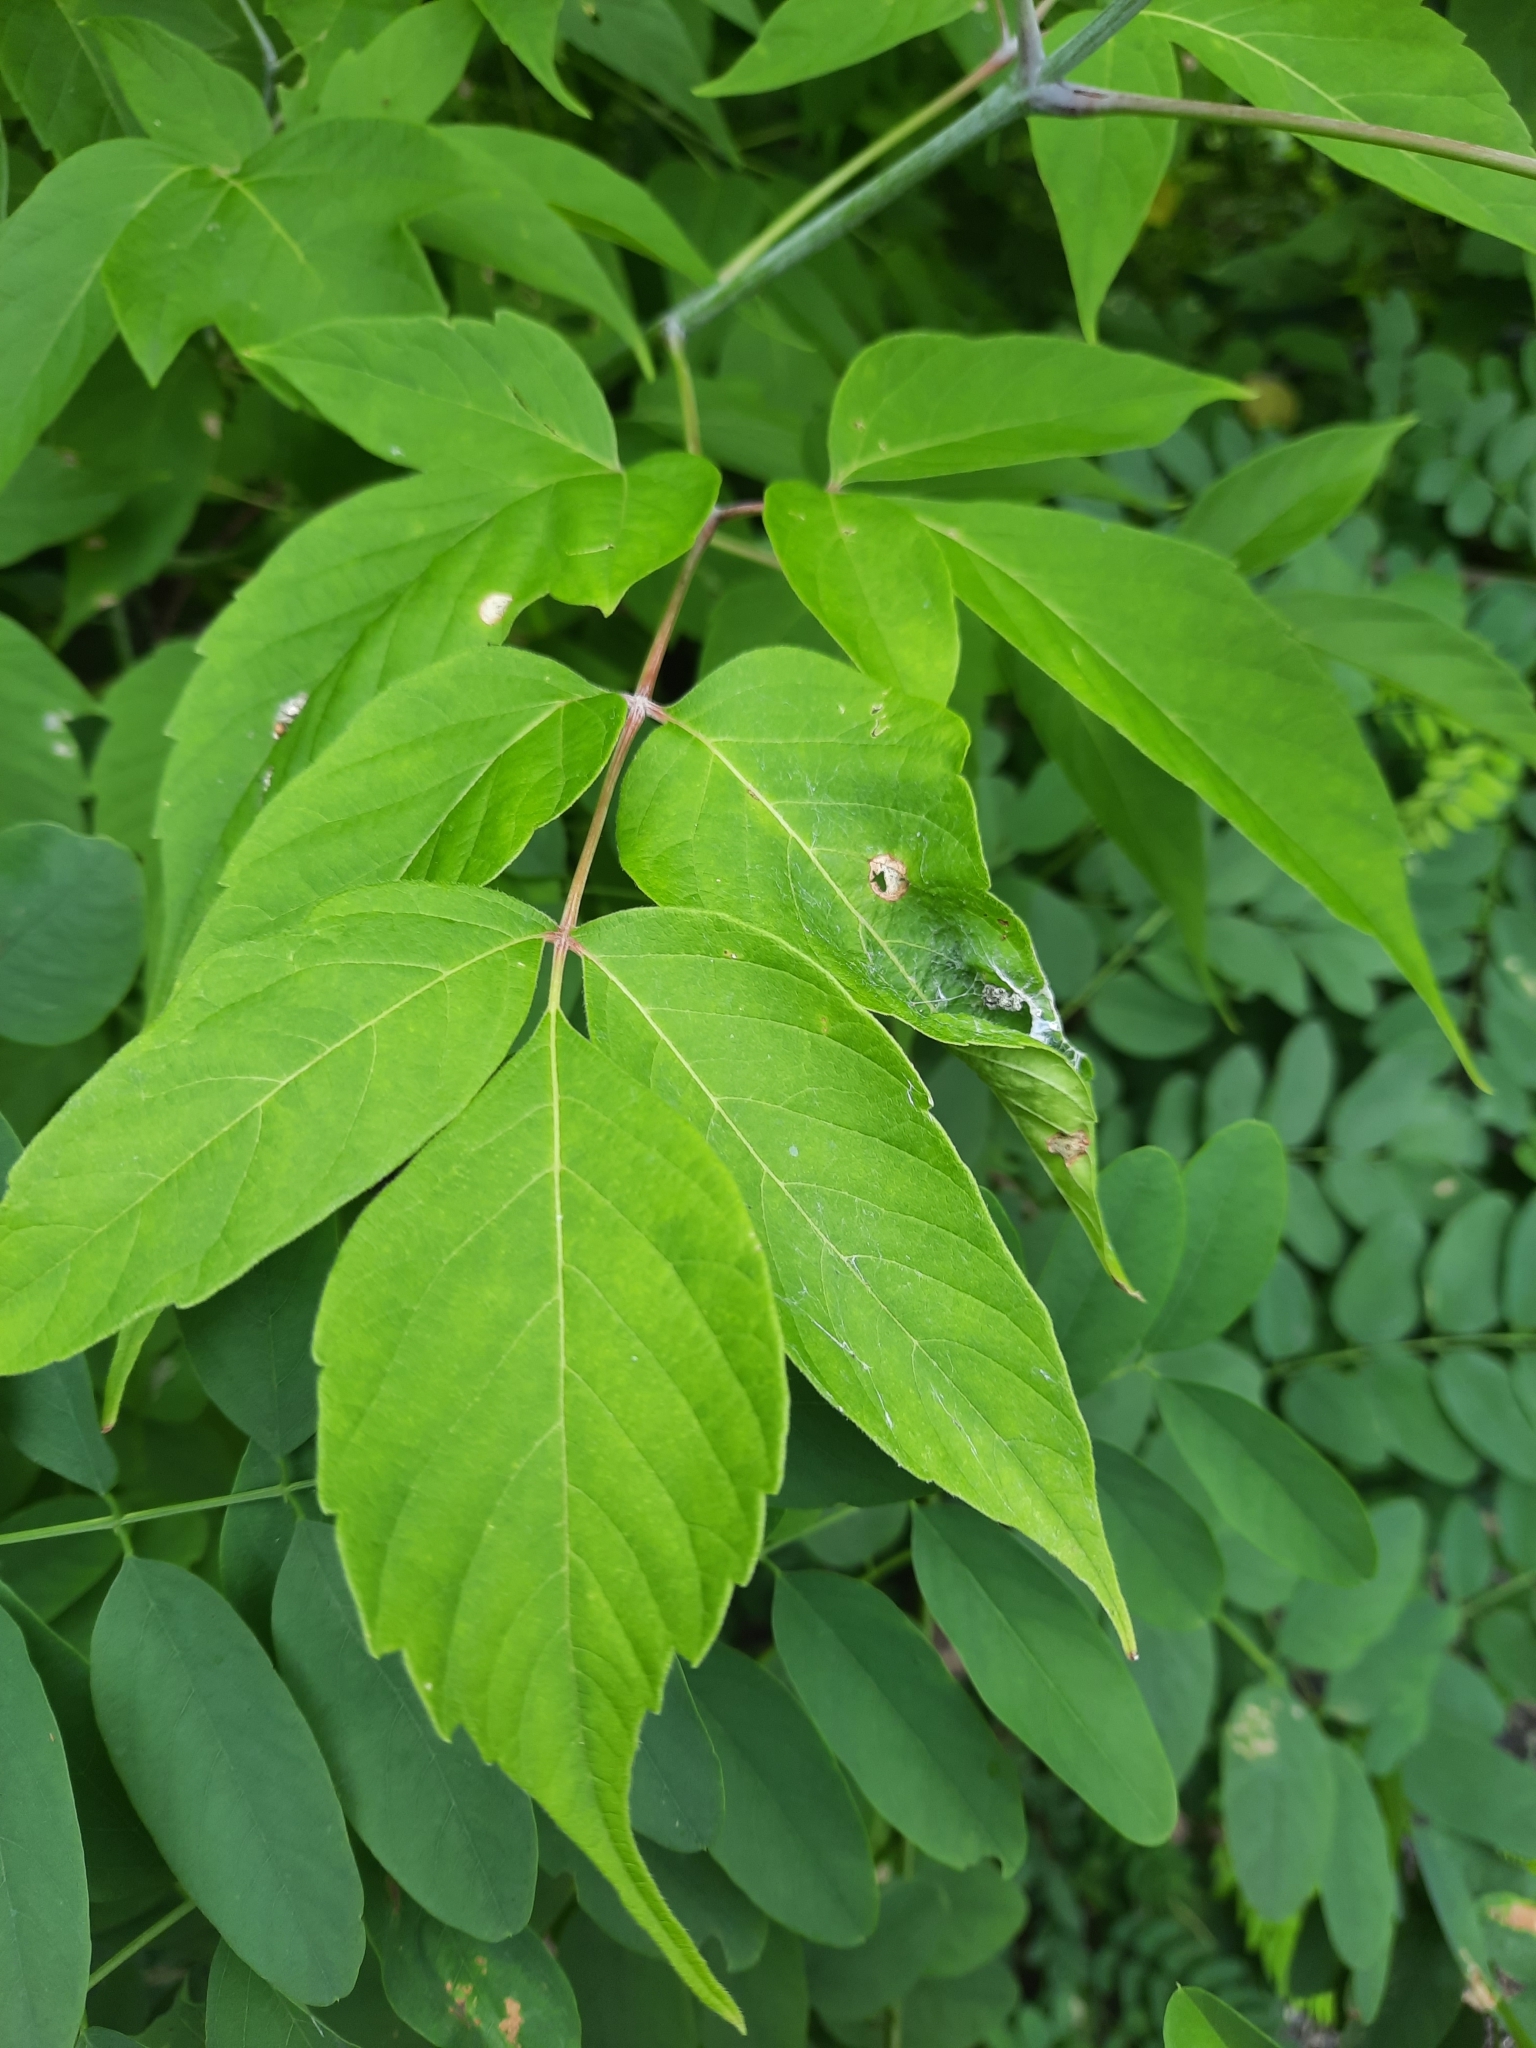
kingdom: Plantae
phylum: Tracheophyta
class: Magnoliopsida
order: Sapindales
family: Sapindaceae
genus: Acer
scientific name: Acer negundo
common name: Ashleaf maple
